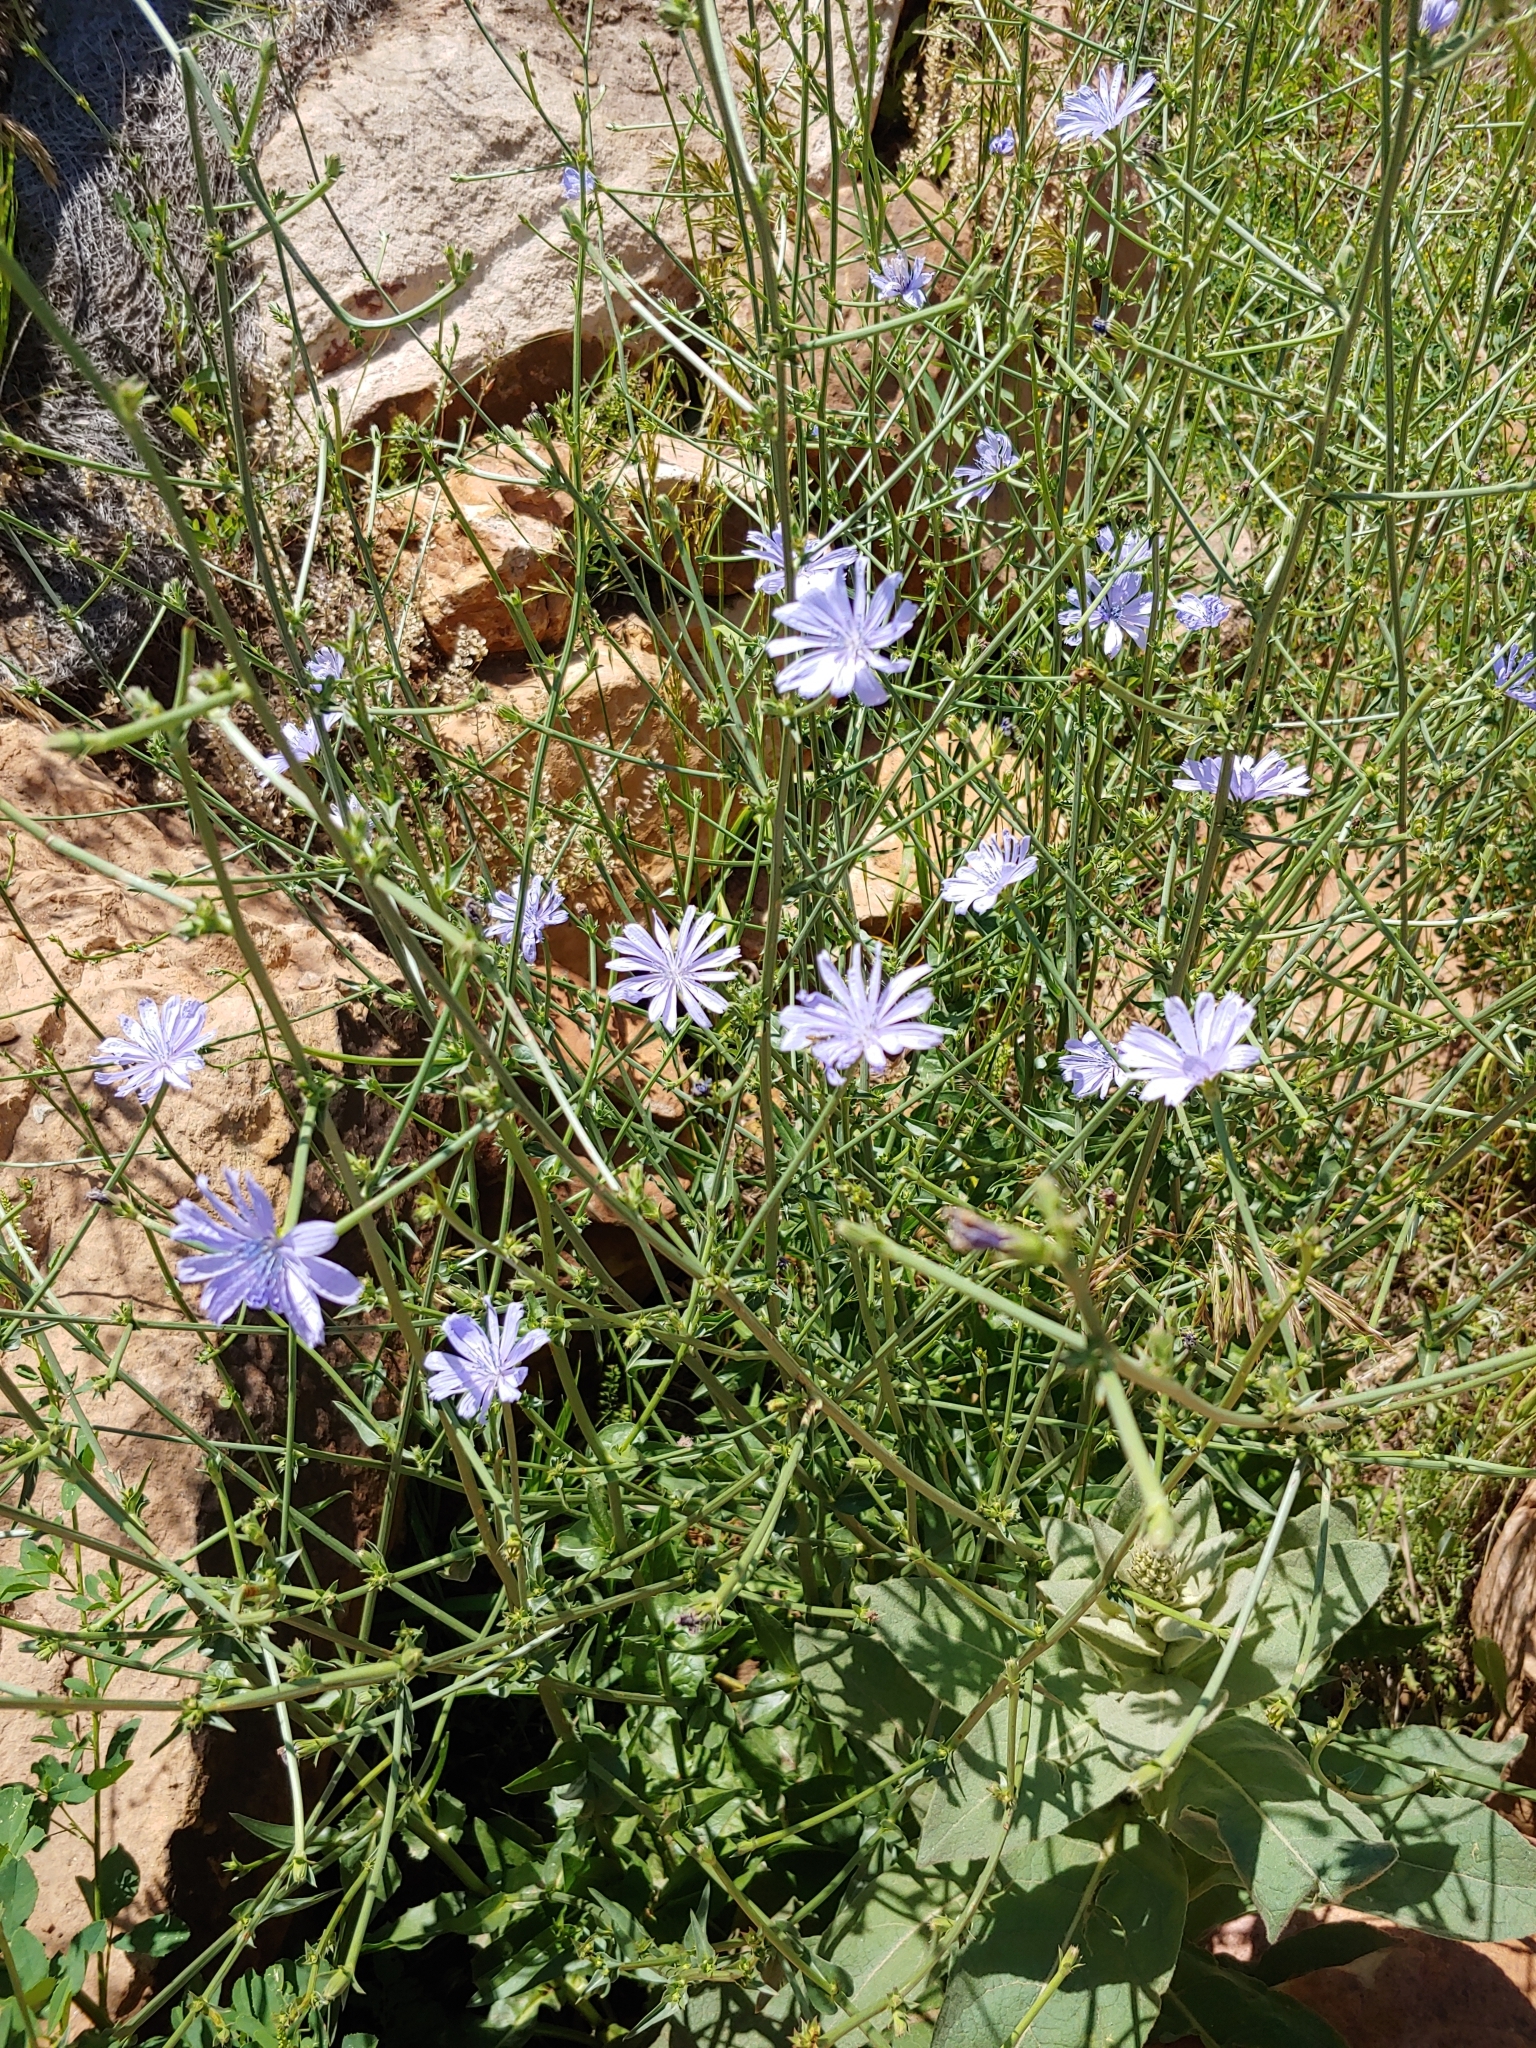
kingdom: Plantae
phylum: Tracheophyta
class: Magnoliopsida
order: Asterales
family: Asteraceae
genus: Cichorium
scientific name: Cichorium intybus
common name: Chicory
